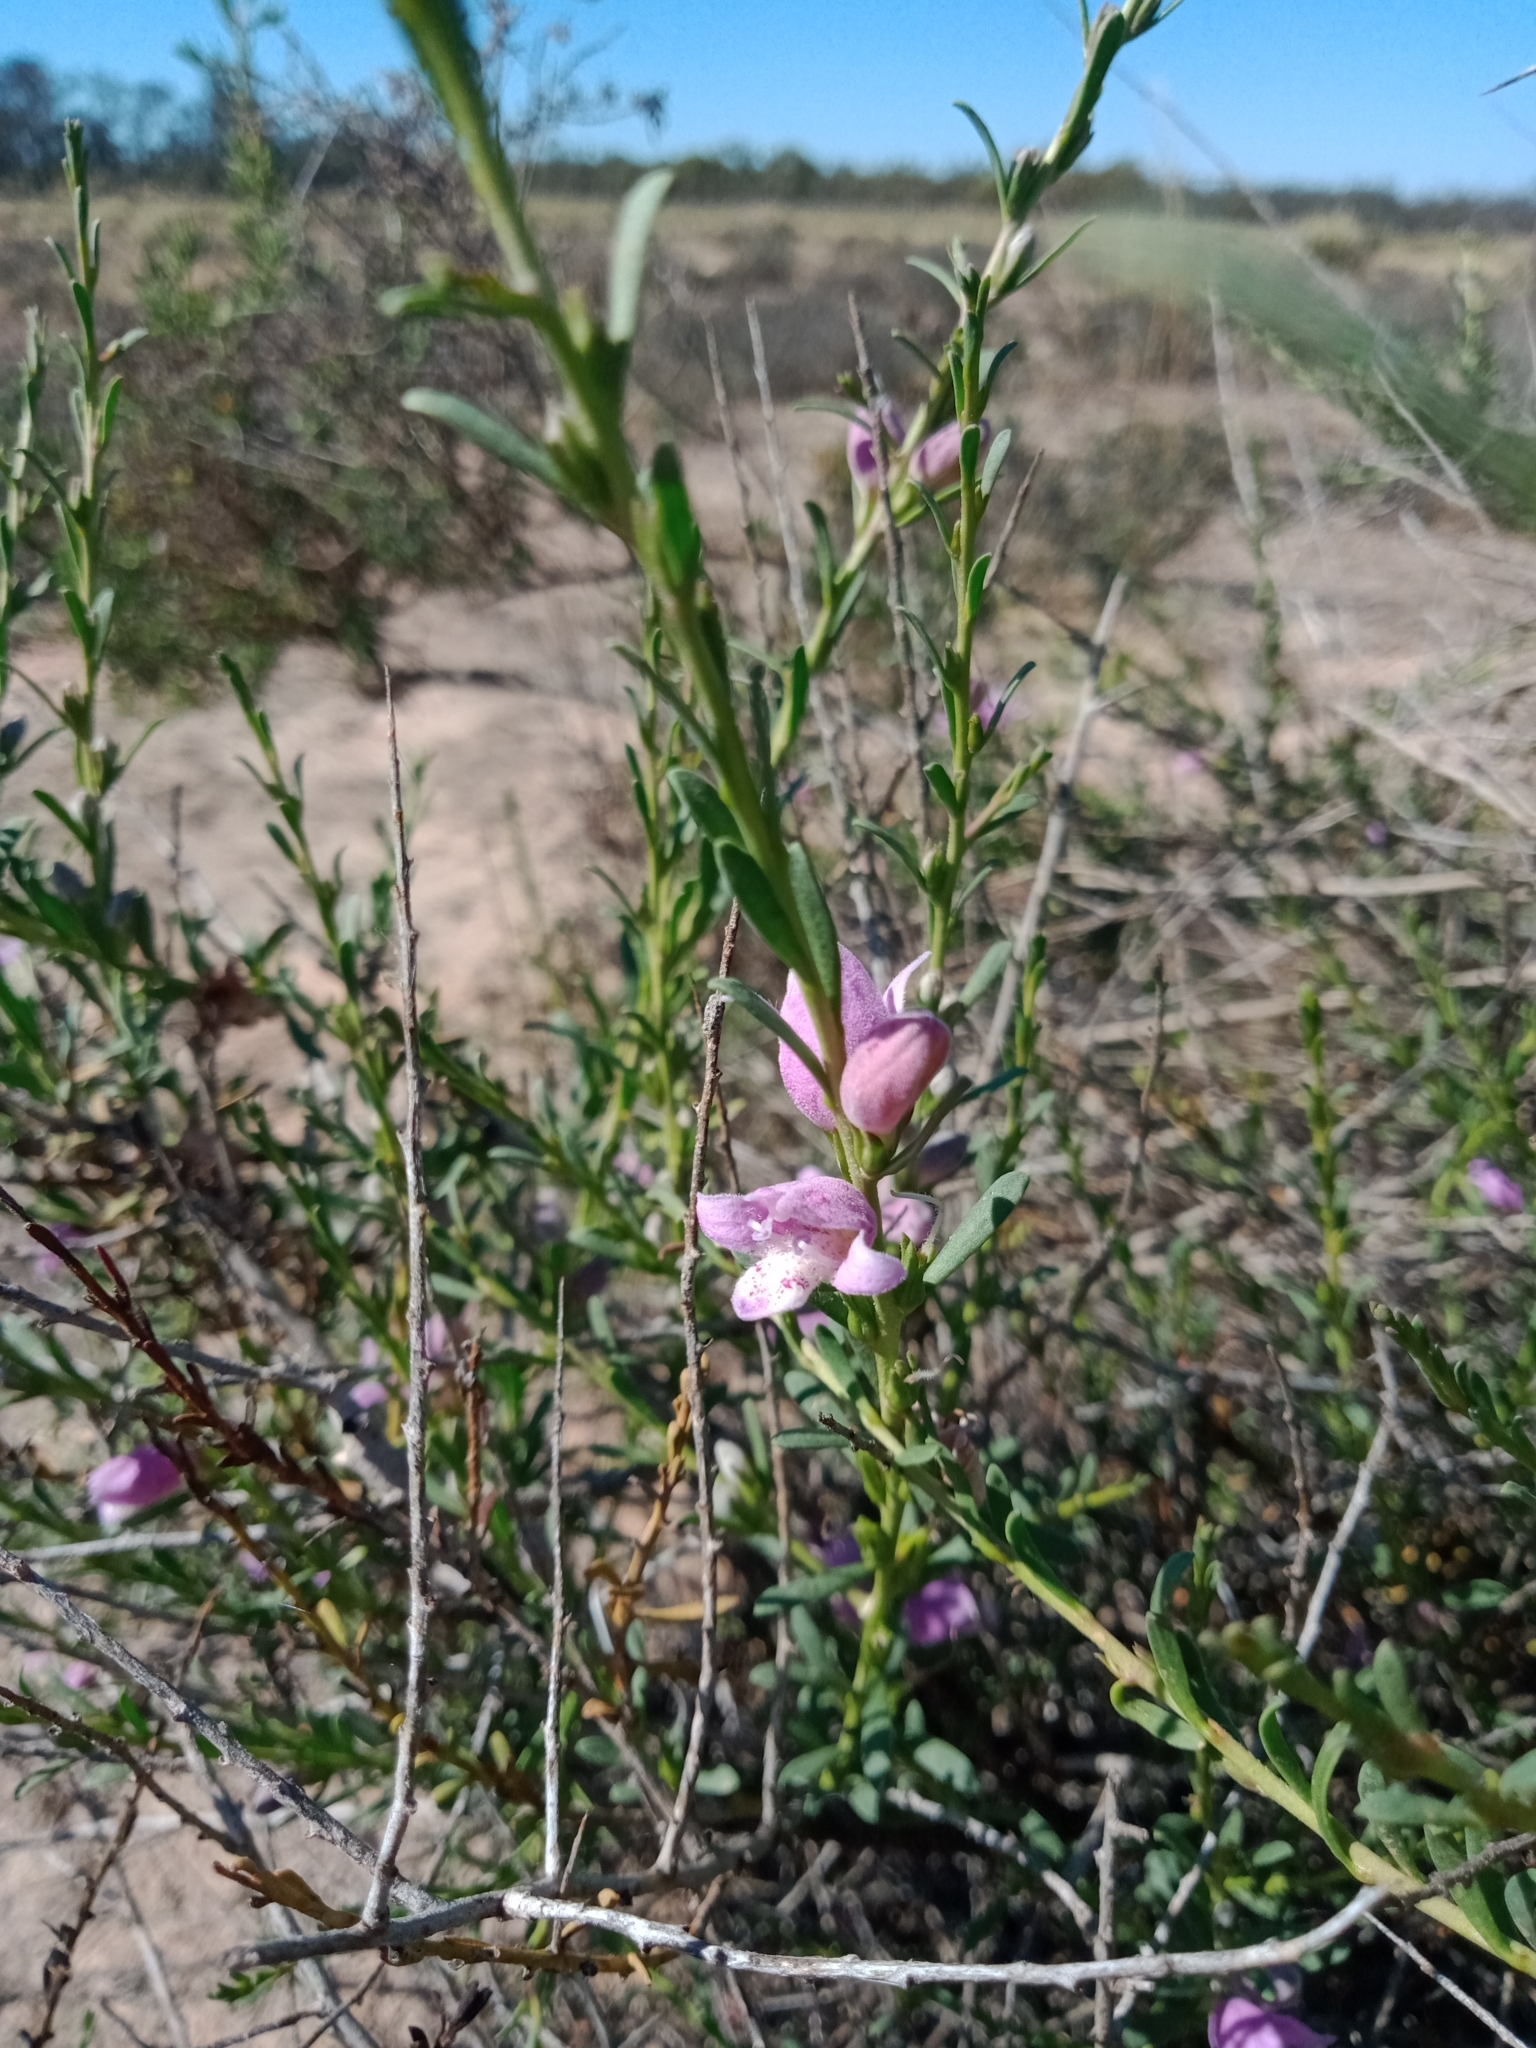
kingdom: Plantae
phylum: Tracheophyta
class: Magnoliopsida
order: Lamiales
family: Scrophulariaceae
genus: Eremophila
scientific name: Eremophila divaricata
